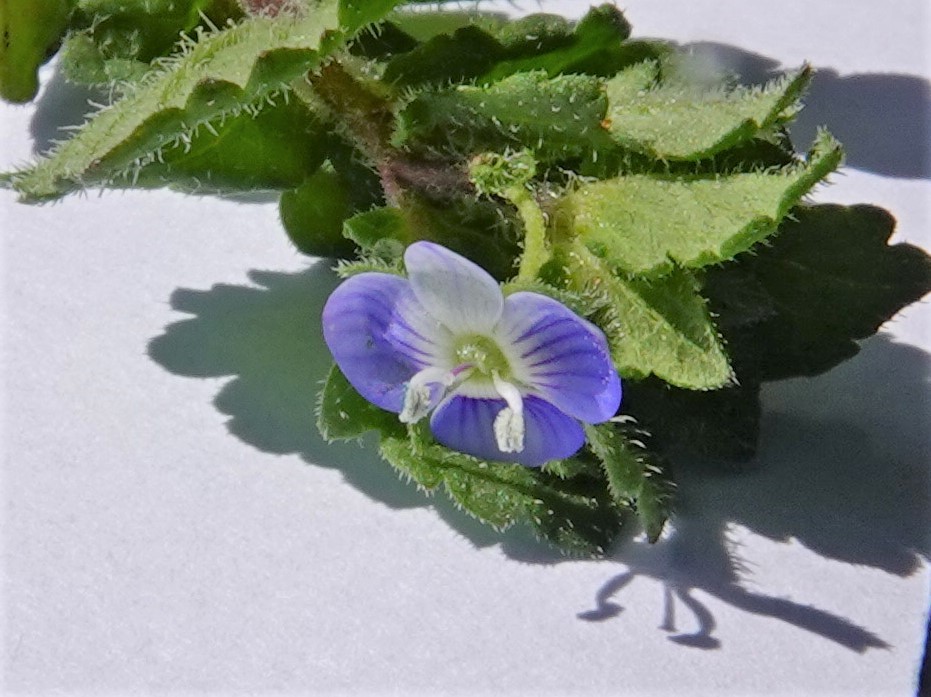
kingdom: Plantae
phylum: Tracheophyta
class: Magnoliopsida
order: Lamiales
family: Plantaginaceae
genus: Veronica
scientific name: Veronica persica
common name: Common field-speedwell
